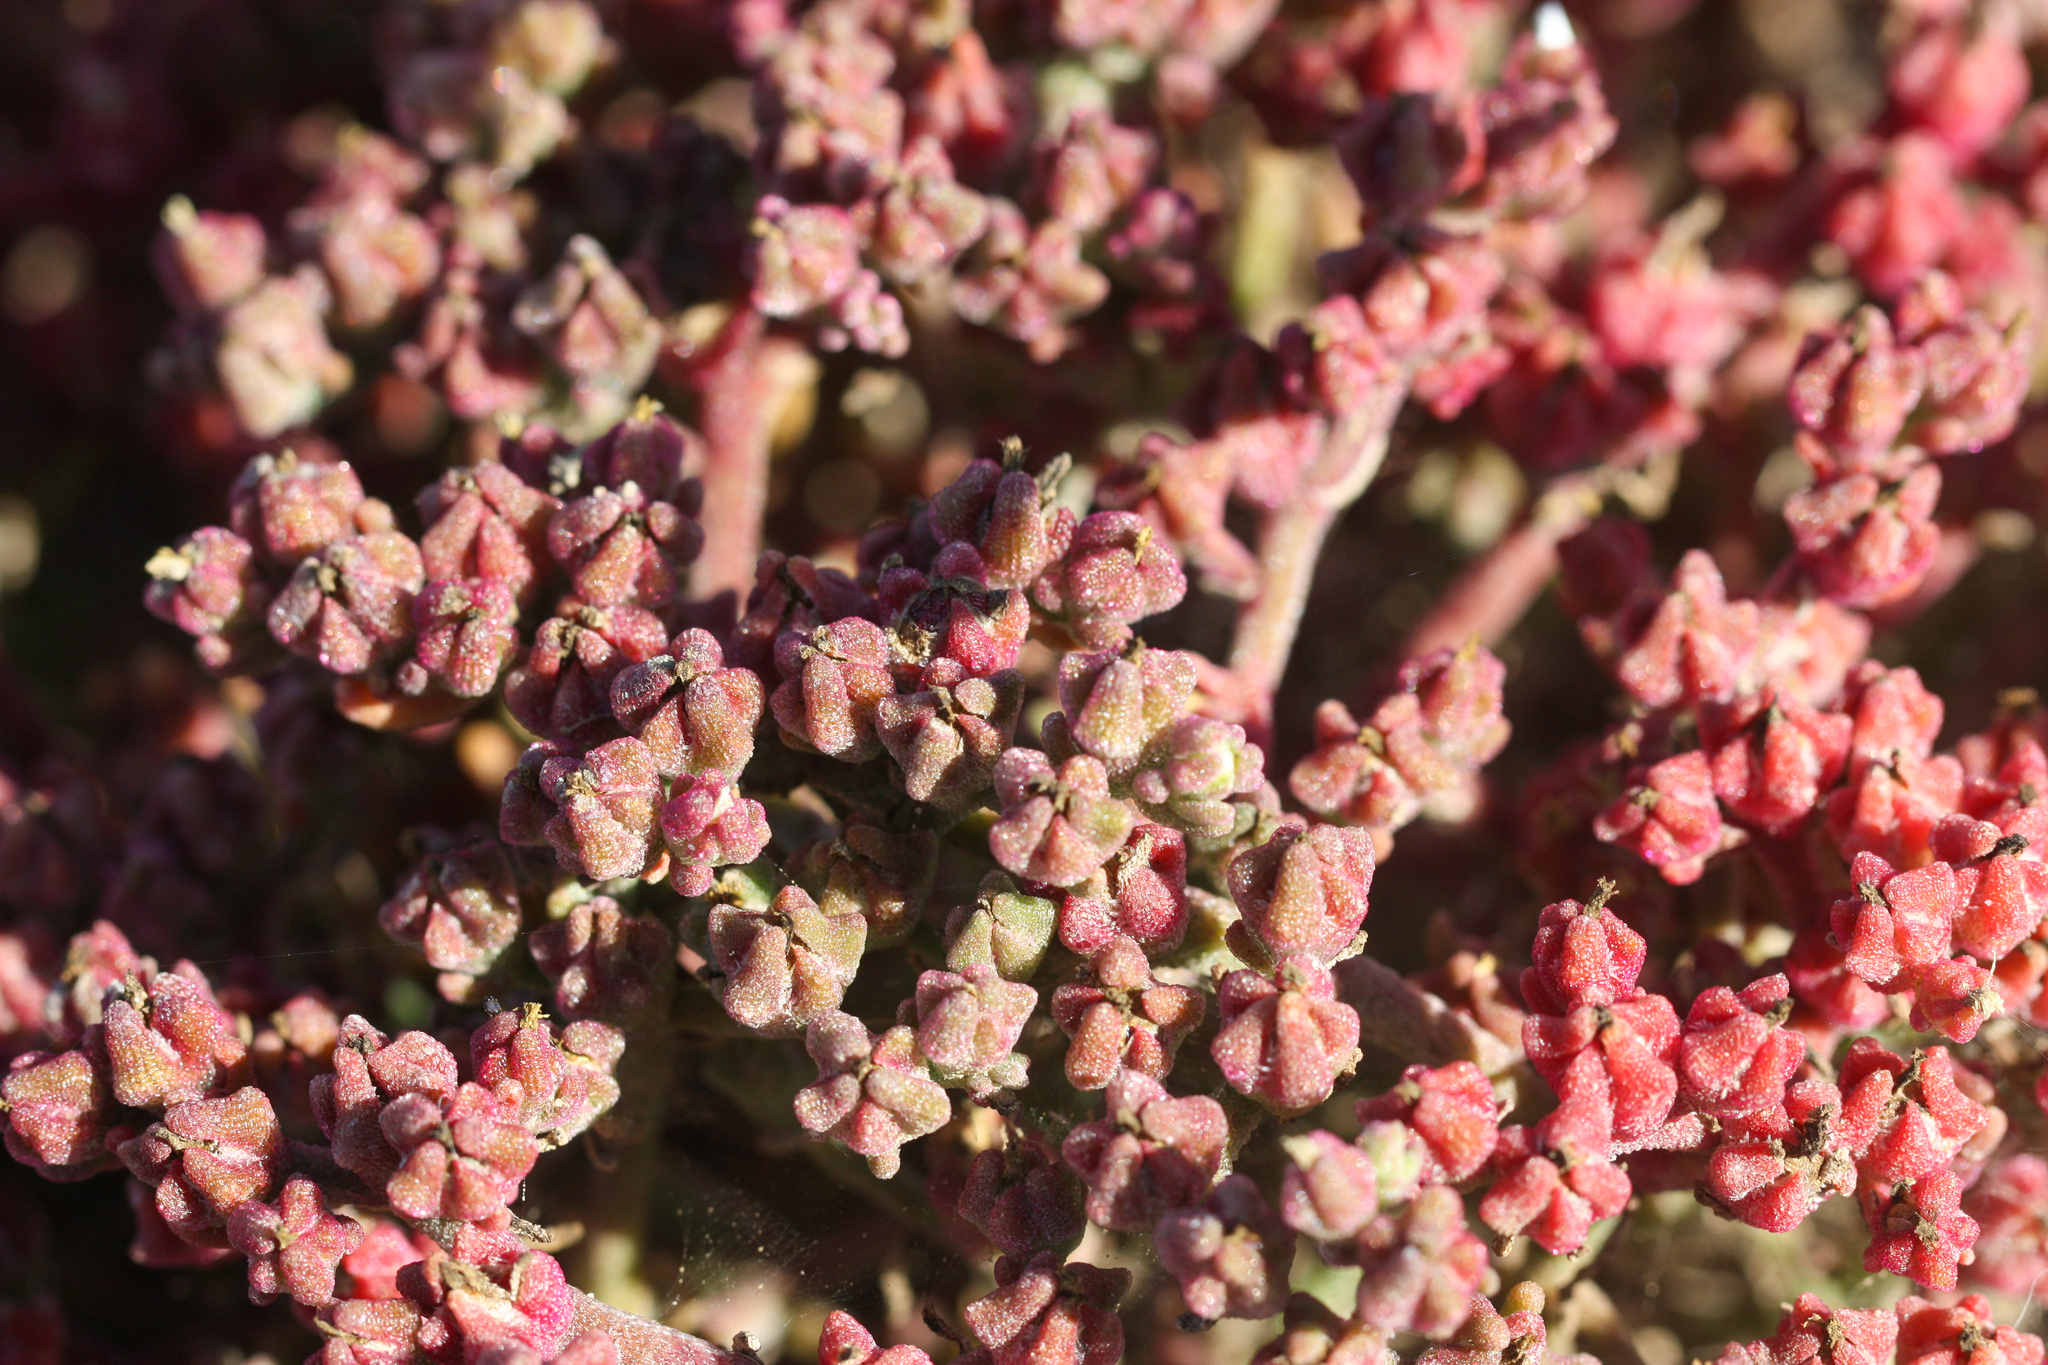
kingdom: Plantae
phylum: Tracheophyta
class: Magnoliopsida
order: Caryophyllales
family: Aizoaceae
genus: Mesembryanthemum
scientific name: Mesembryanthemum nodiflorum
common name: Slenderleaf iceplant
